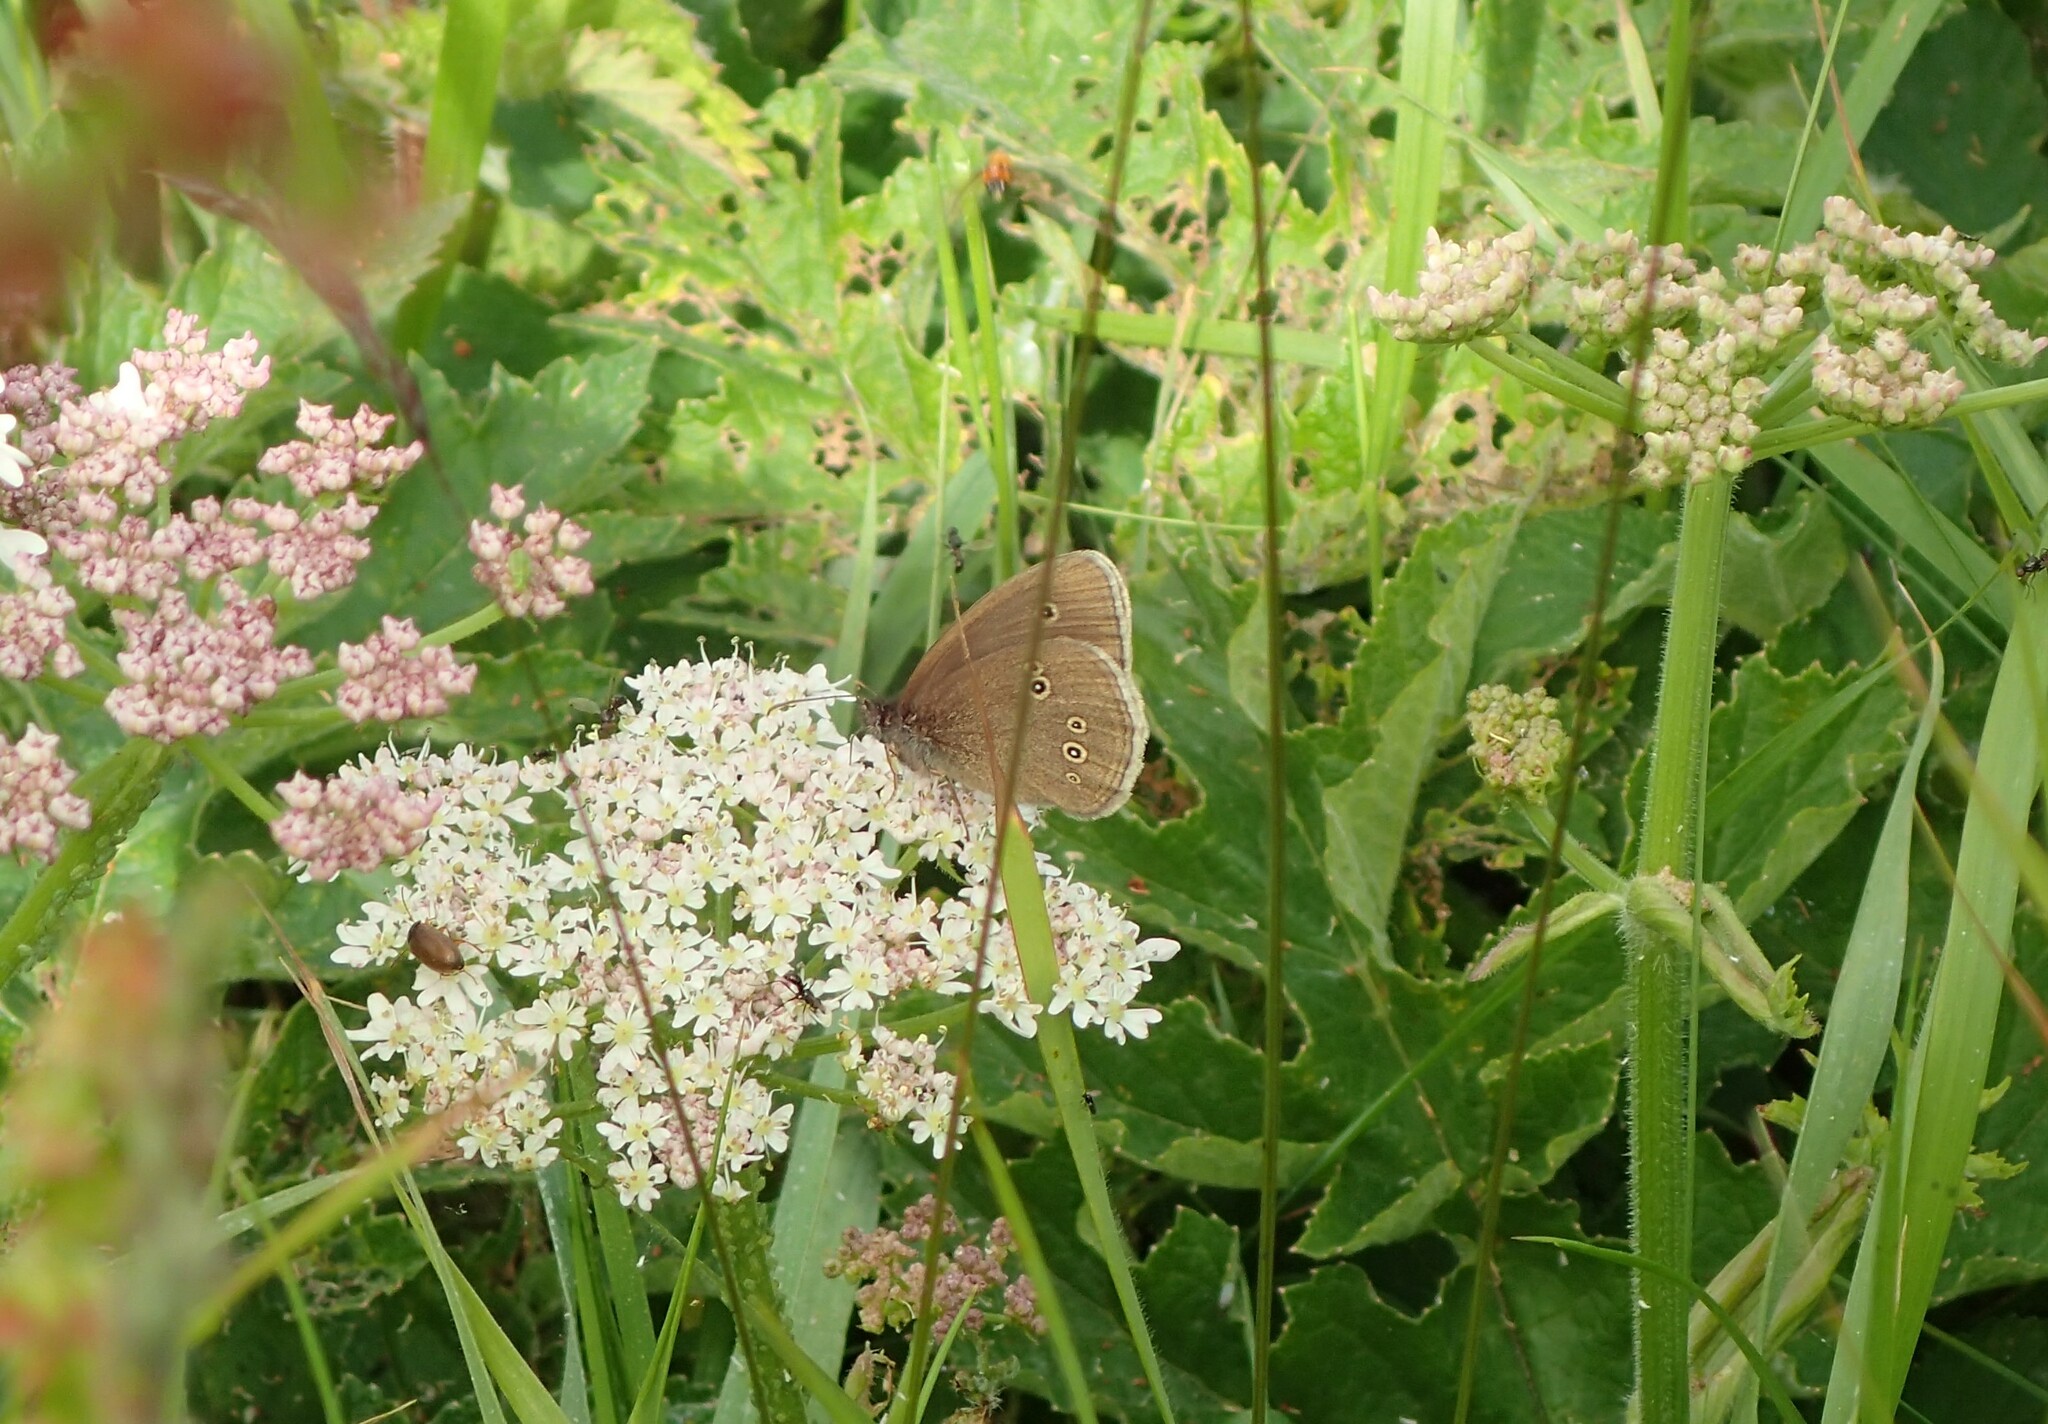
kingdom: Animalia
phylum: Arthropoda
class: Insecta
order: Lepidoptera
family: Nymphalidae
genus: Aphantopus
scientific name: Aphantopus hyperantus
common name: Ringlet
